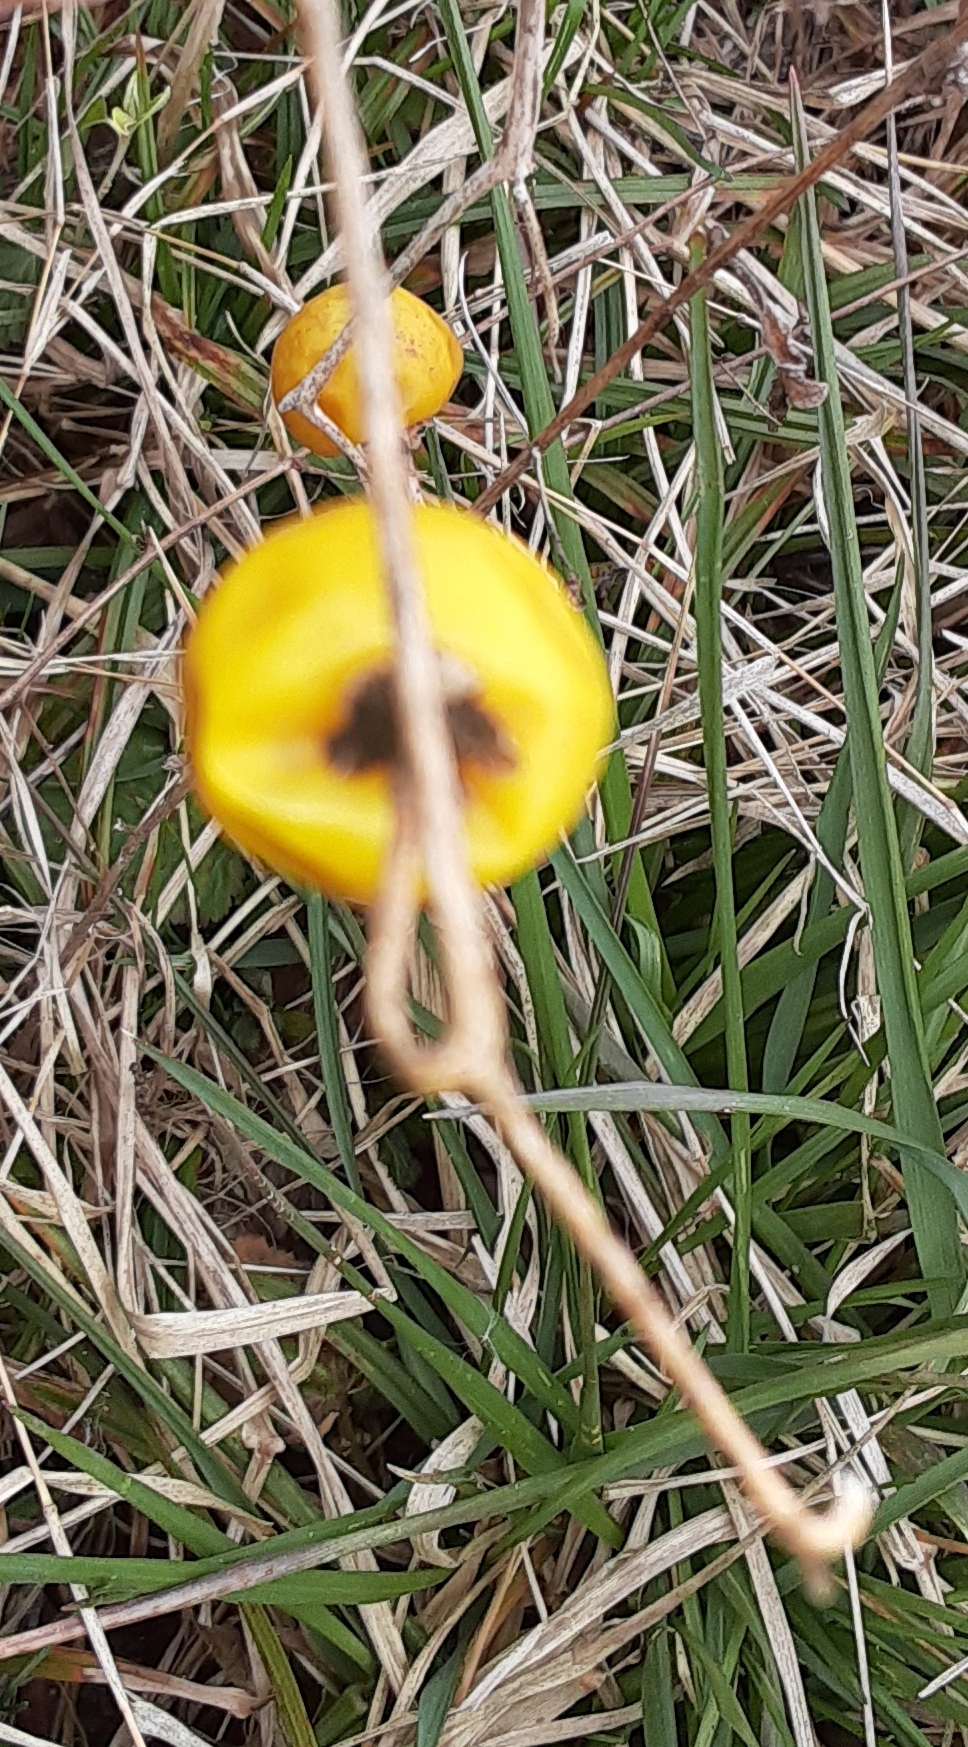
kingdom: Plantae
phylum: Tracheophyta
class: Magnoliopsida
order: Solanales
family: Solanaceae
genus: Solanum
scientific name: Solanum carolinense
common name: Horse-nettle
